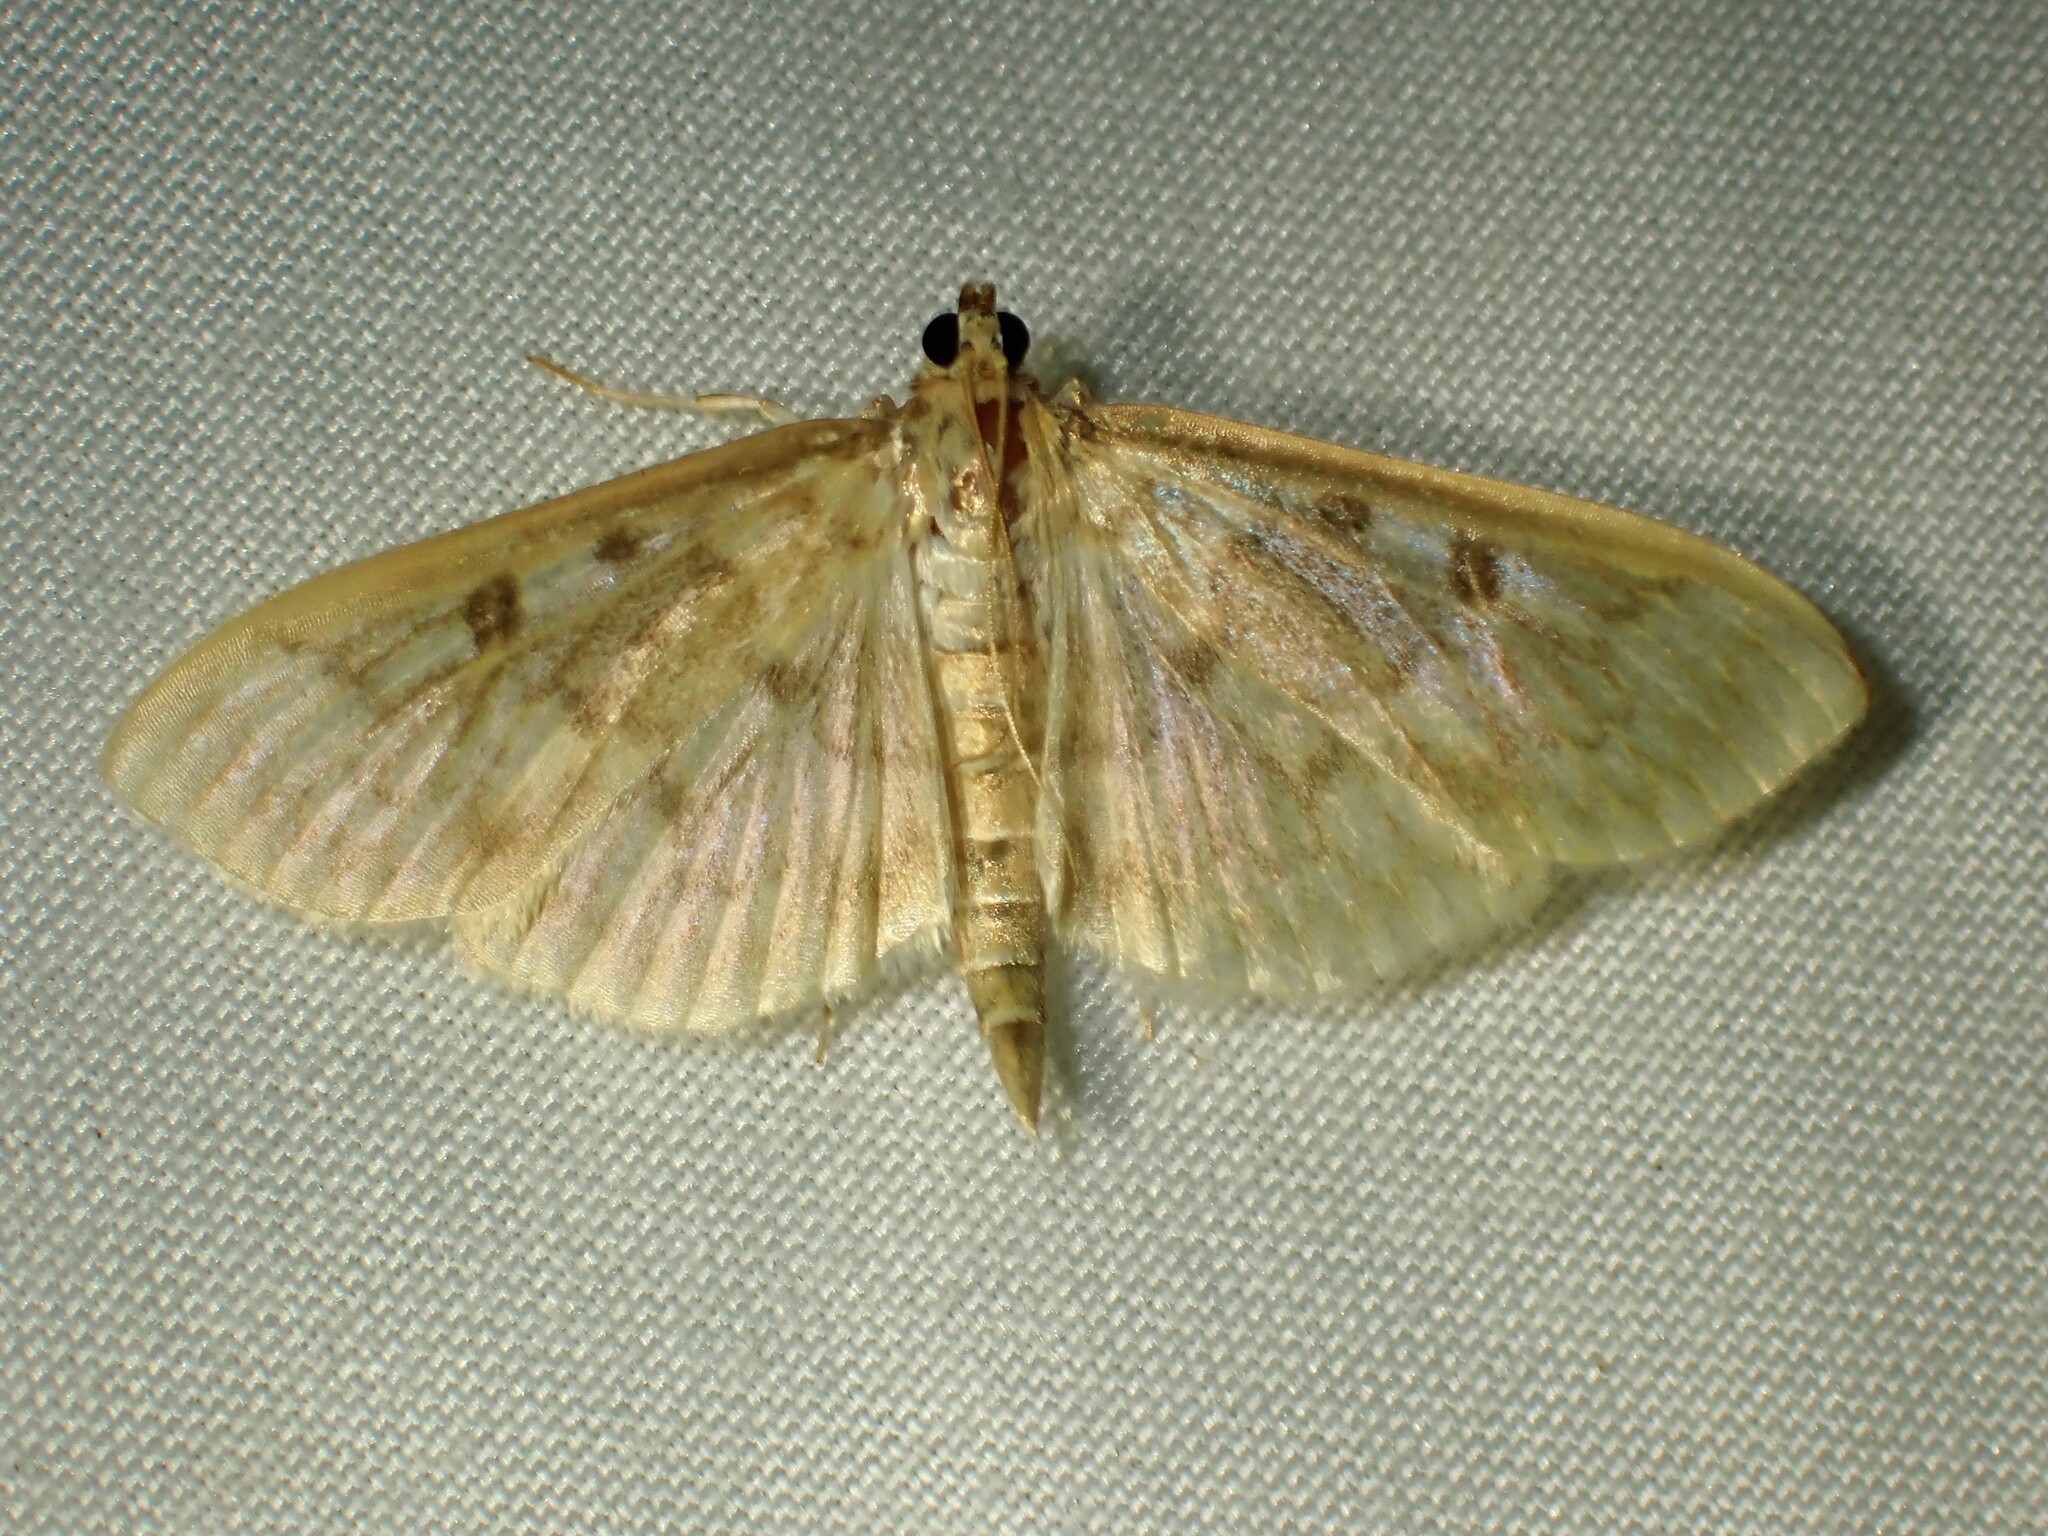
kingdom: Animalia
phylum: Arthropoda
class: Insecta
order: Lepidoptera
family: Crambidae
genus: Herpetogramma
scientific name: Herpetogramma aquilonalis
